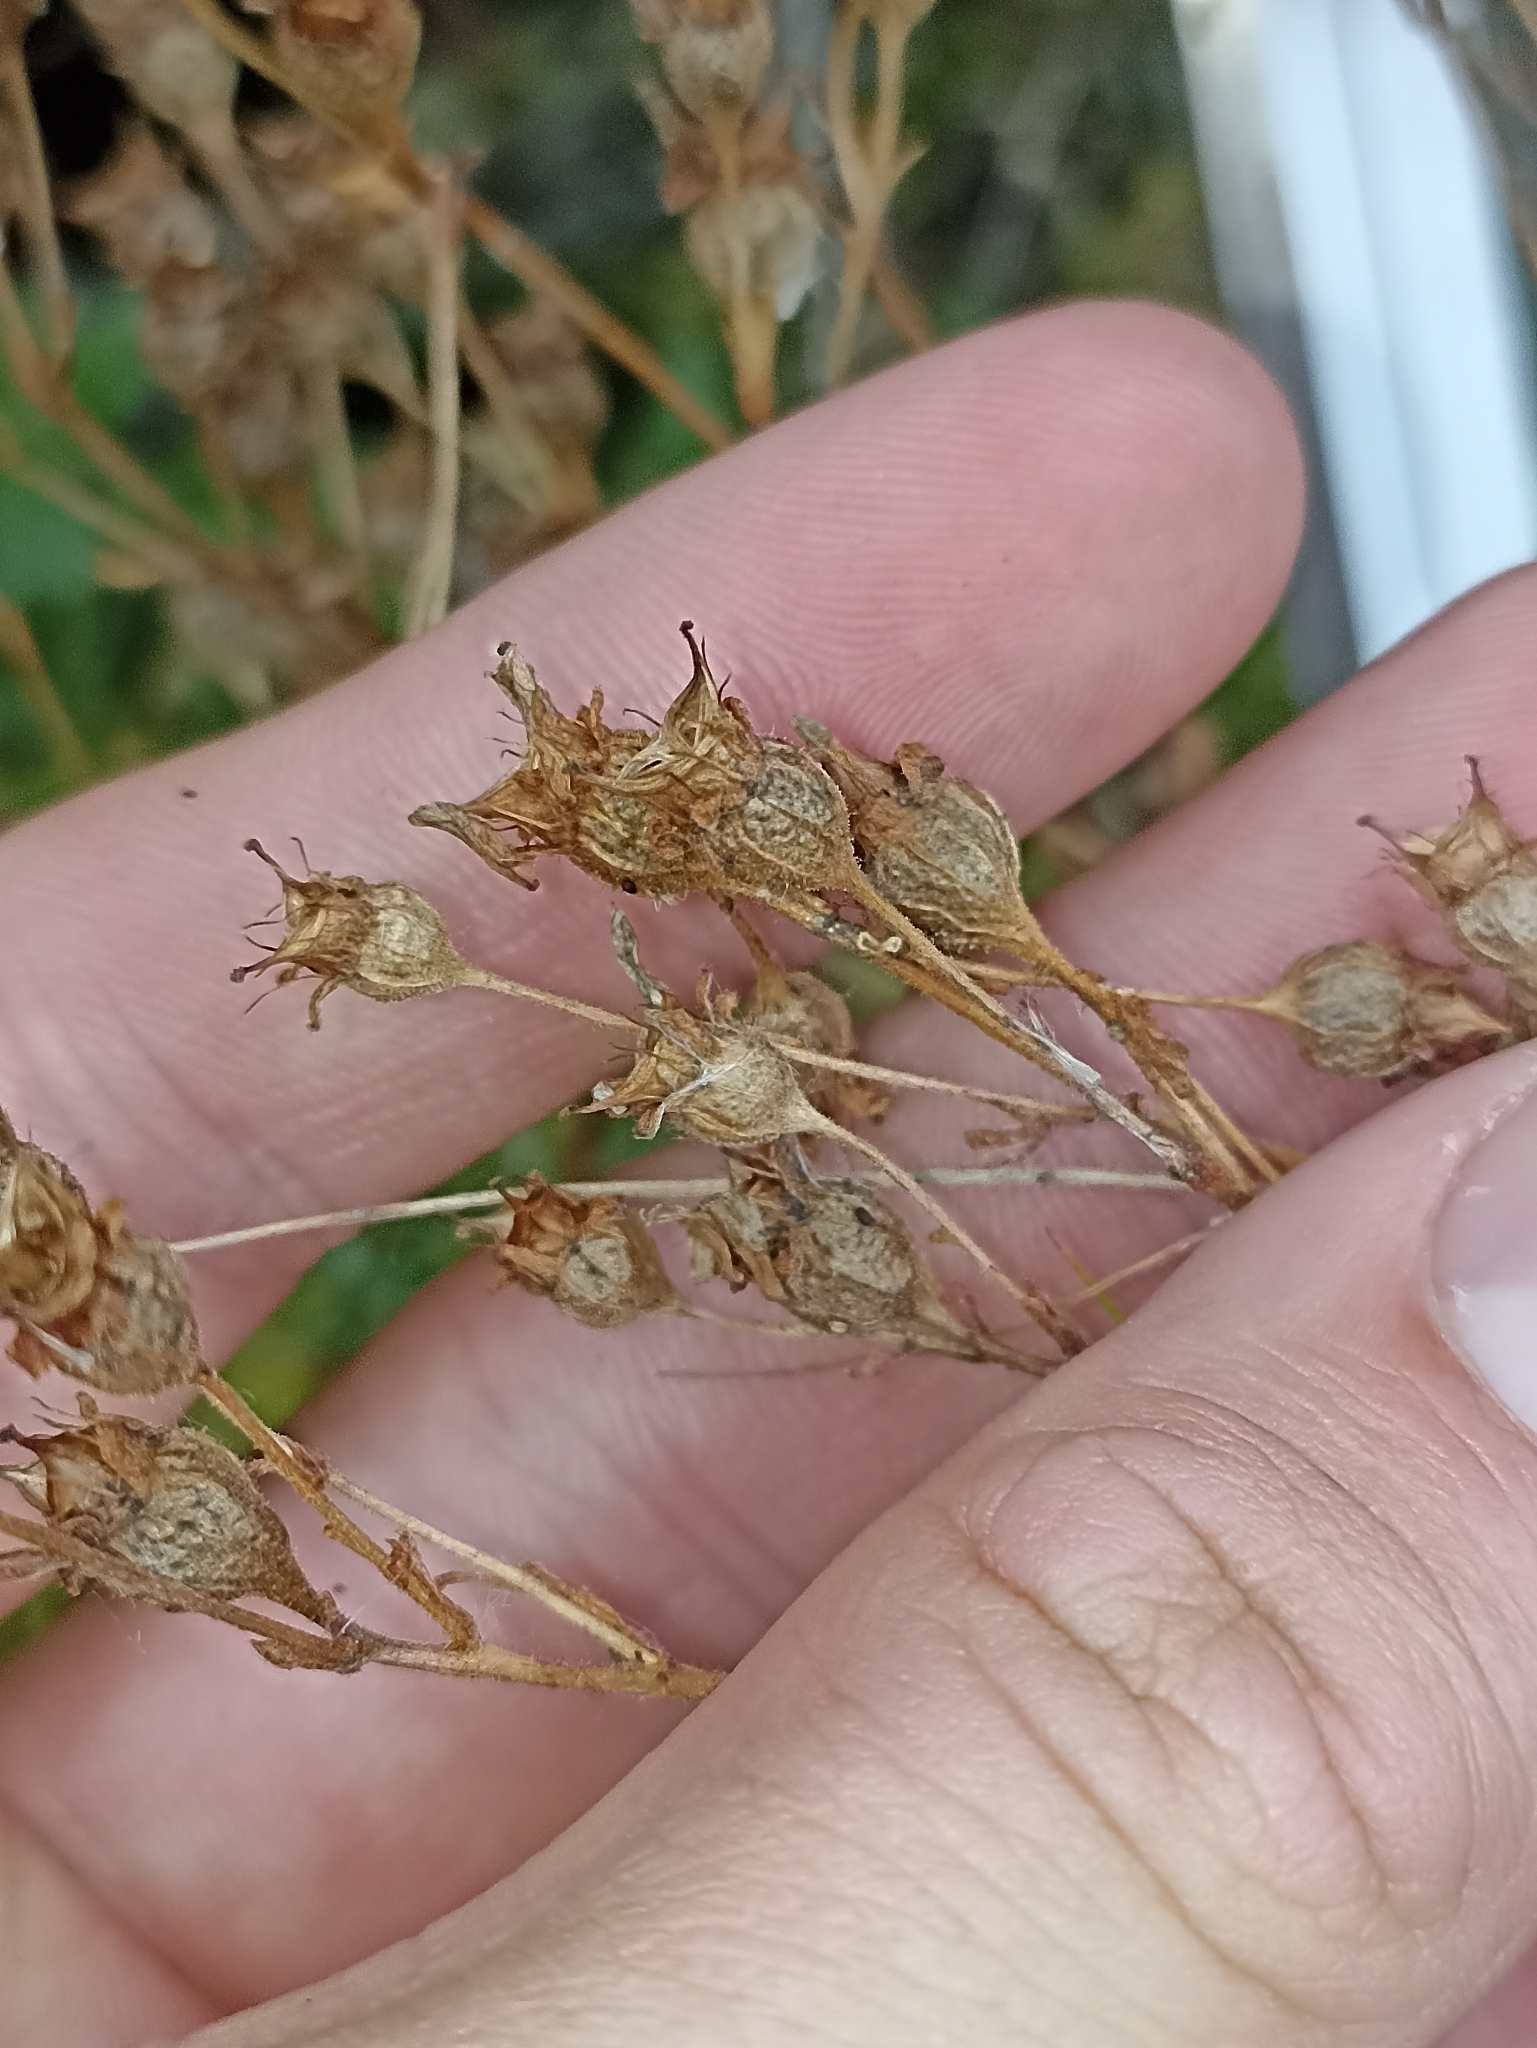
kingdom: Plantae
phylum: Tracheophyta
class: Magnoliopsida
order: Saxifragales
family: Saxifragaceae
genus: Saxifraga
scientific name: Saxifraga cespitosa
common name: Tufted saxifrage
